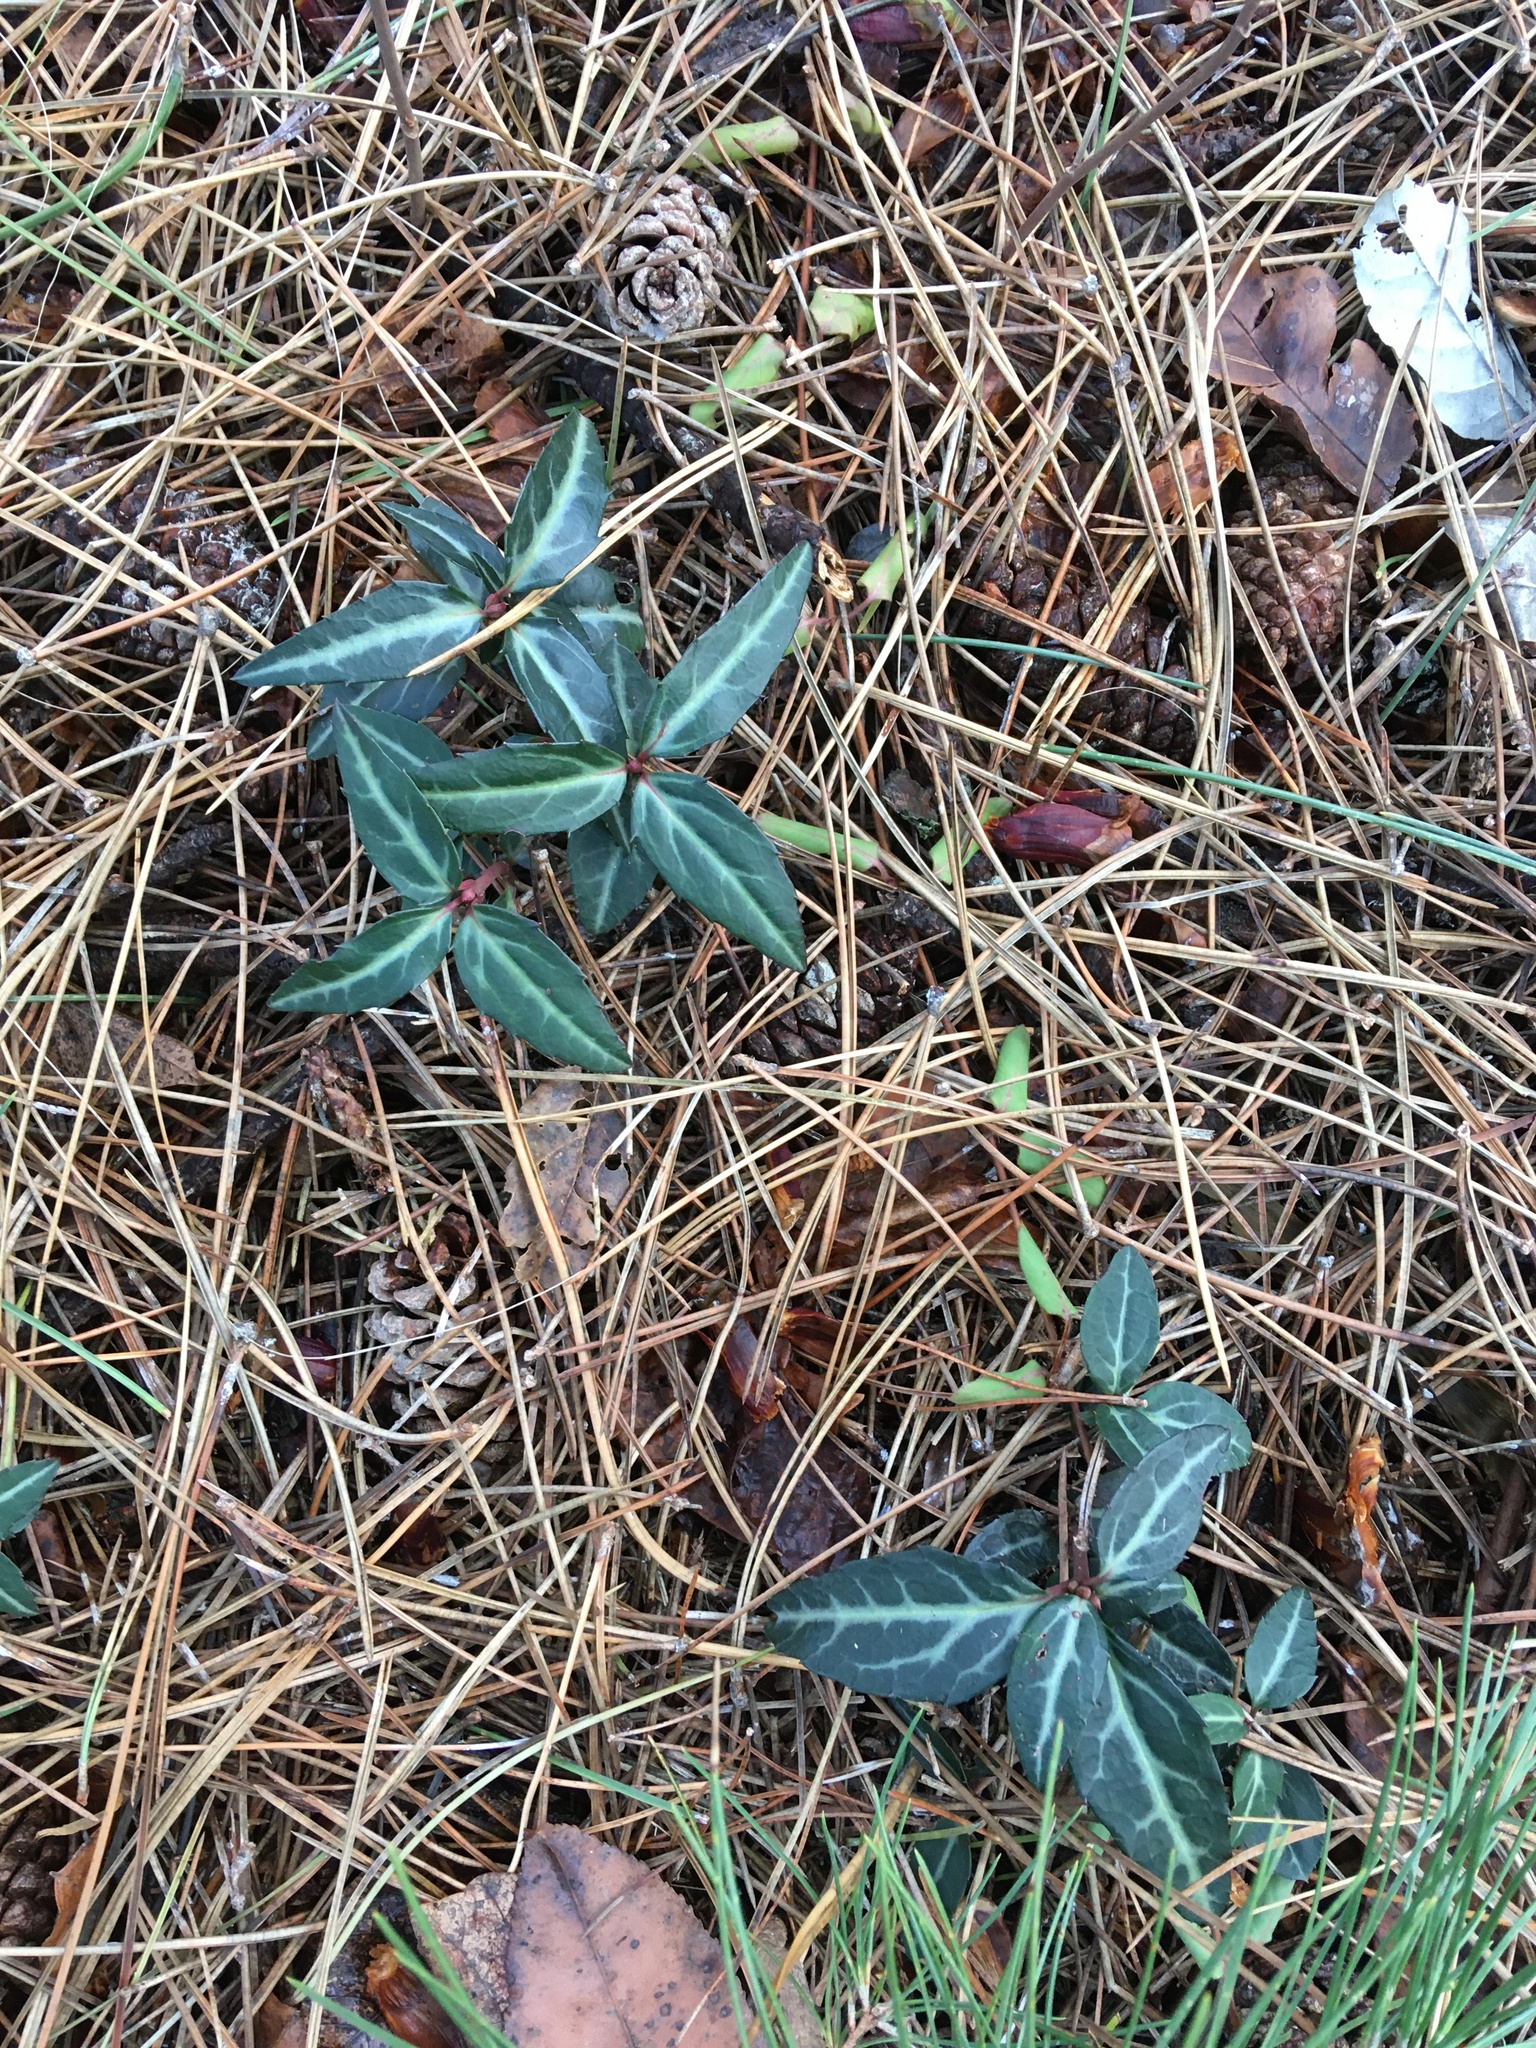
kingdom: Plantae
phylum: Tracheophyta
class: Magnoliopsida
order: Ericales
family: Ericaceae
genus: Chimaphila
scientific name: Chimaphila maculata
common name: Spotted pipsissewa
